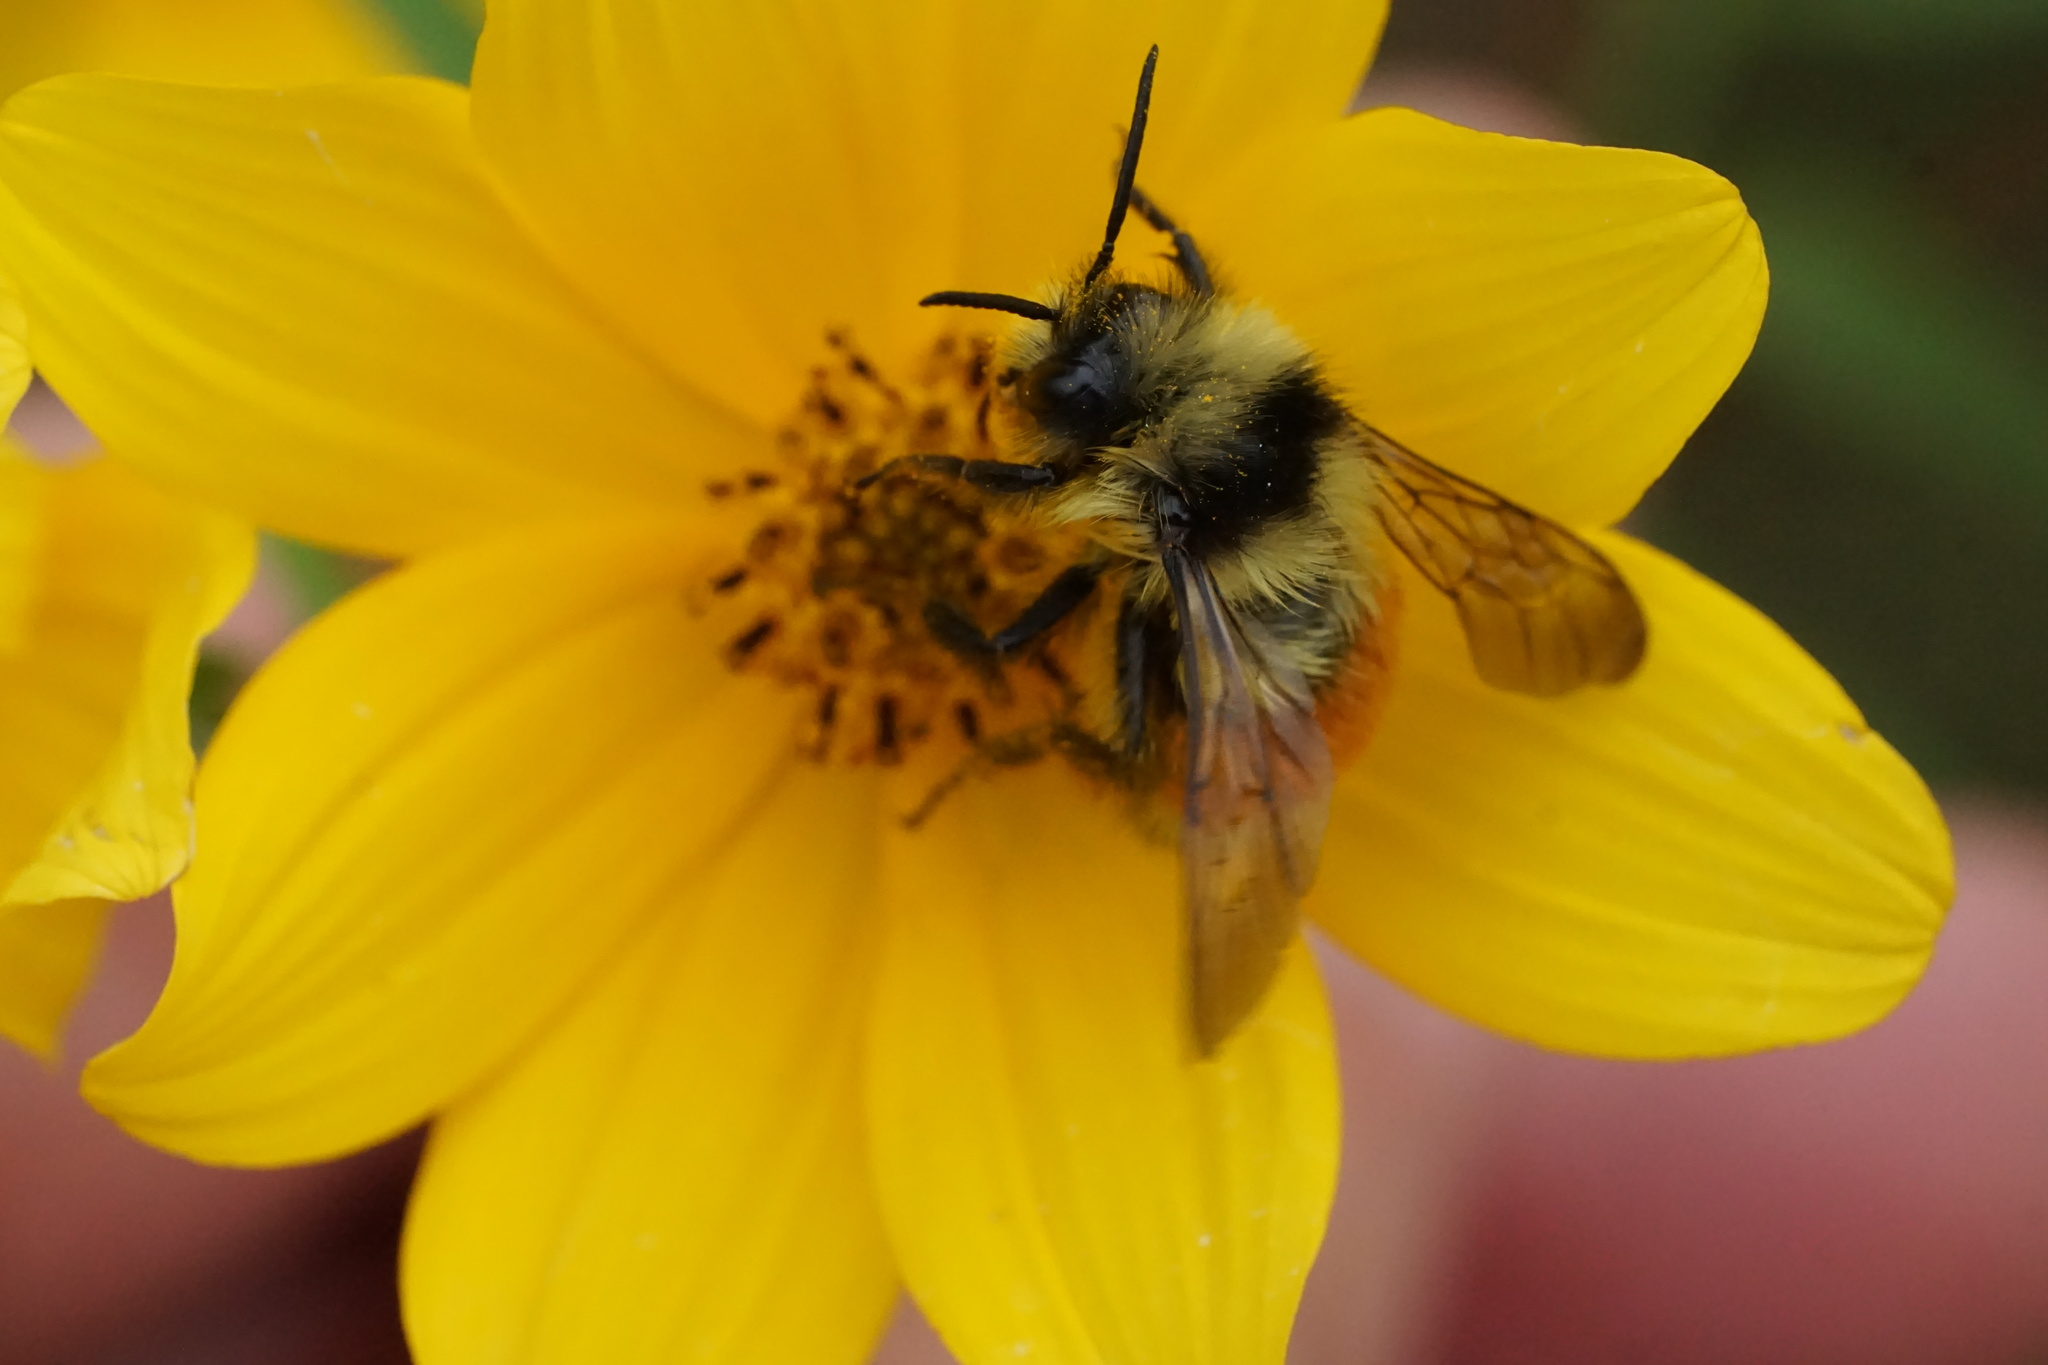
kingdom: Animalia
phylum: Arthropoda
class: Insecta
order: Hymenoptera
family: Apidae
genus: Bombus
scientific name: Bombus ternarius
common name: Tri-colored bumble bee
